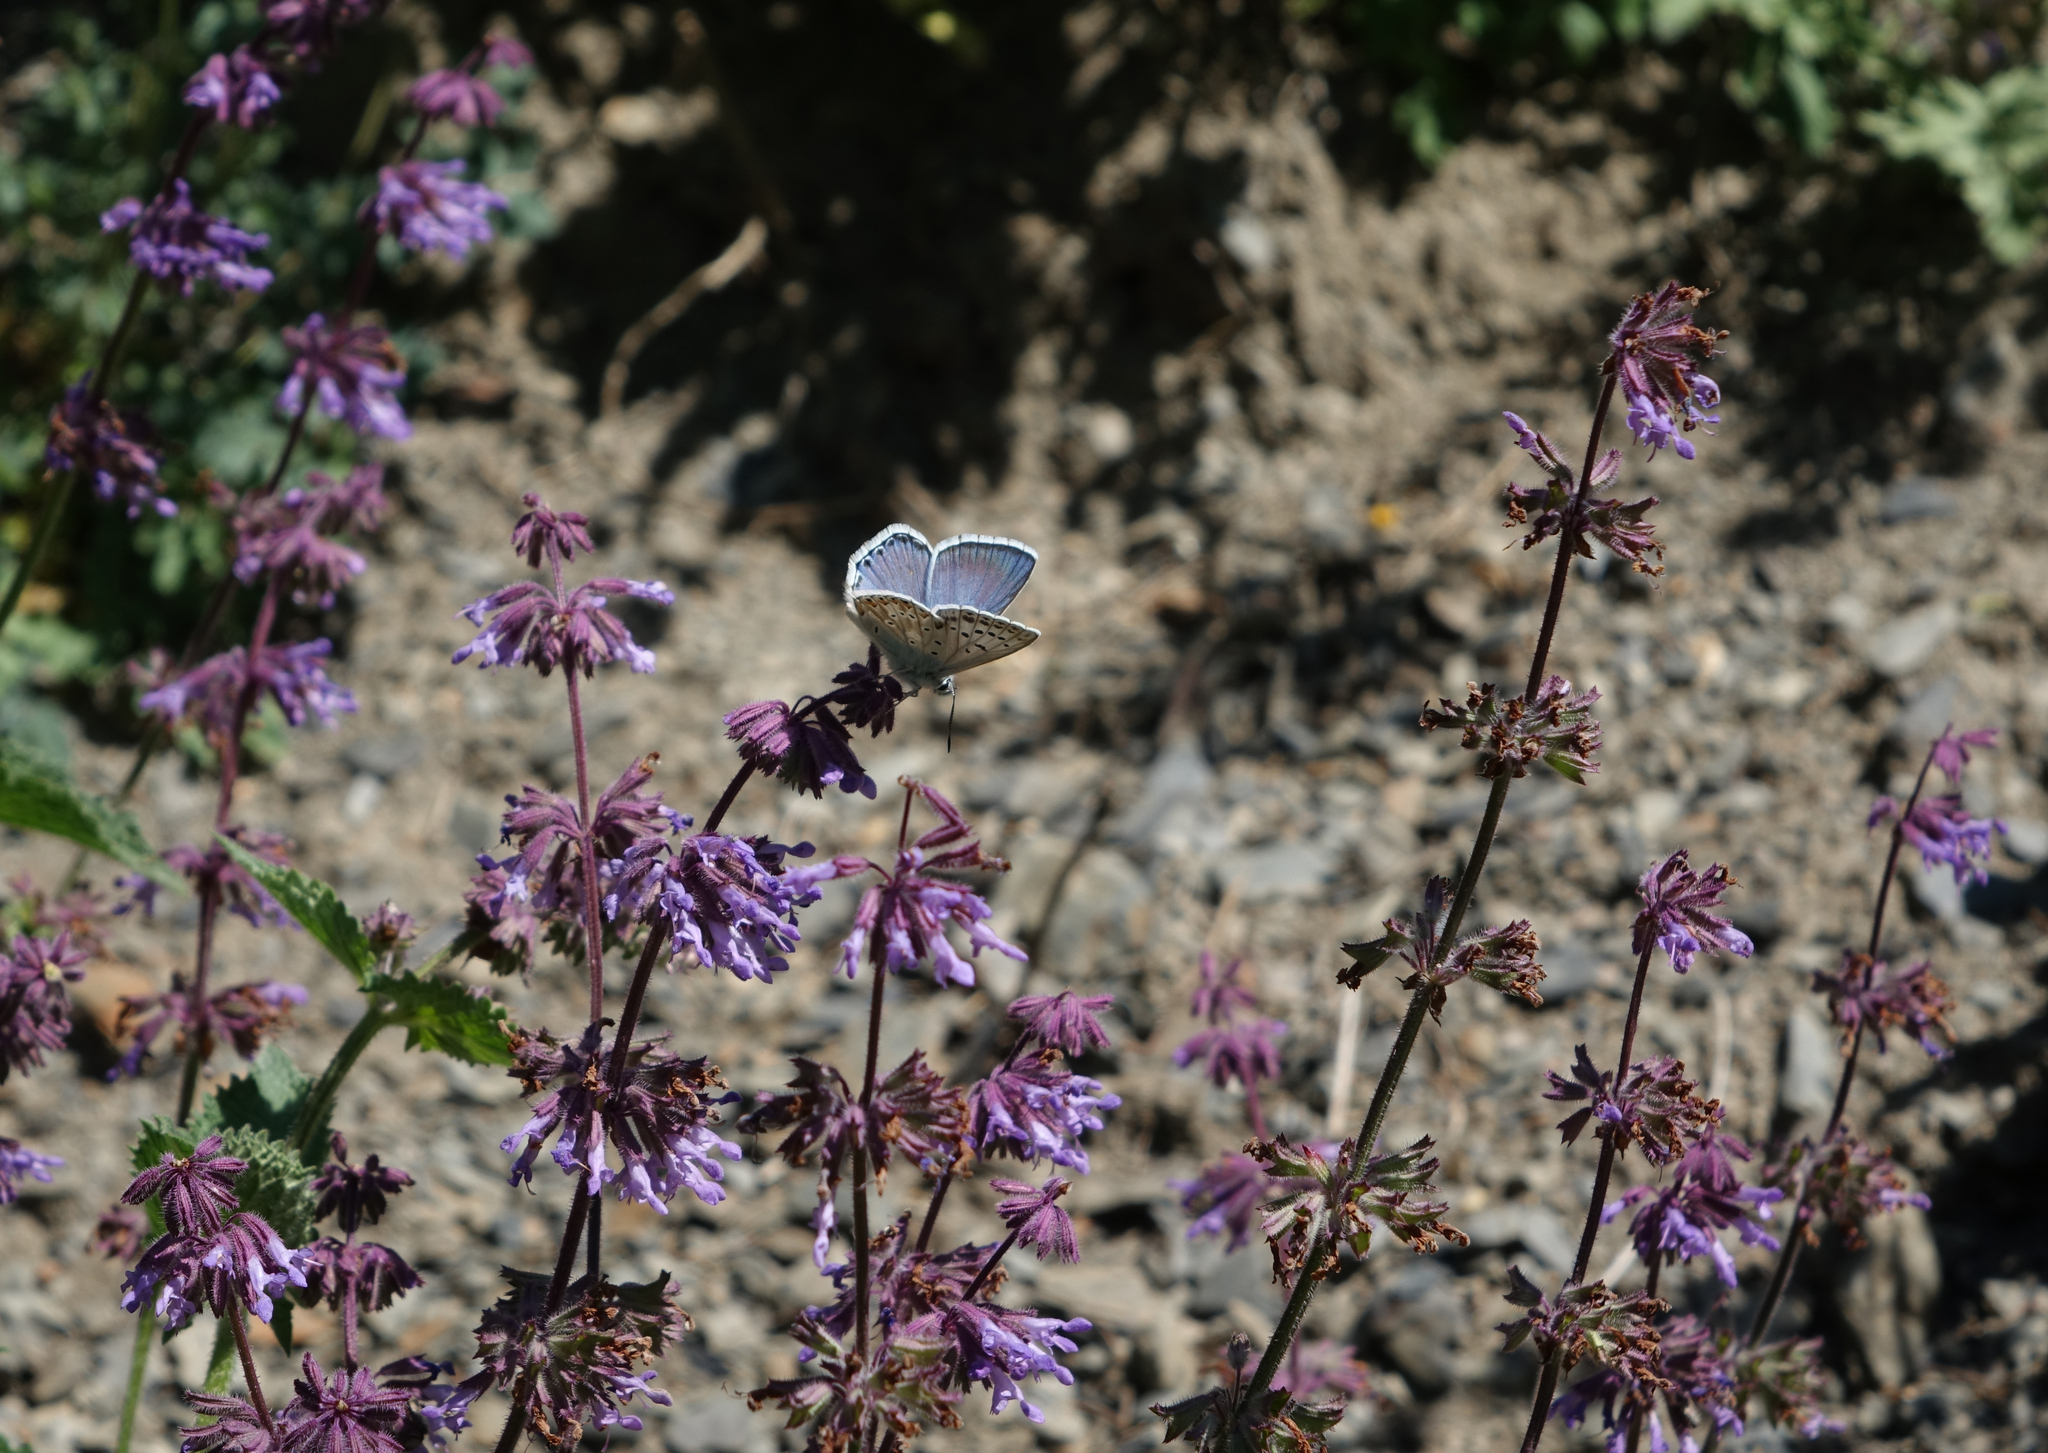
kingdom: Plantae
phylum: Tracheophyta
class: Magnoliopsida
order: Lamiales
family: Lamiaceae
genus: Salvia
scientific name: Salvia verticillata
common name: Whorled clary
